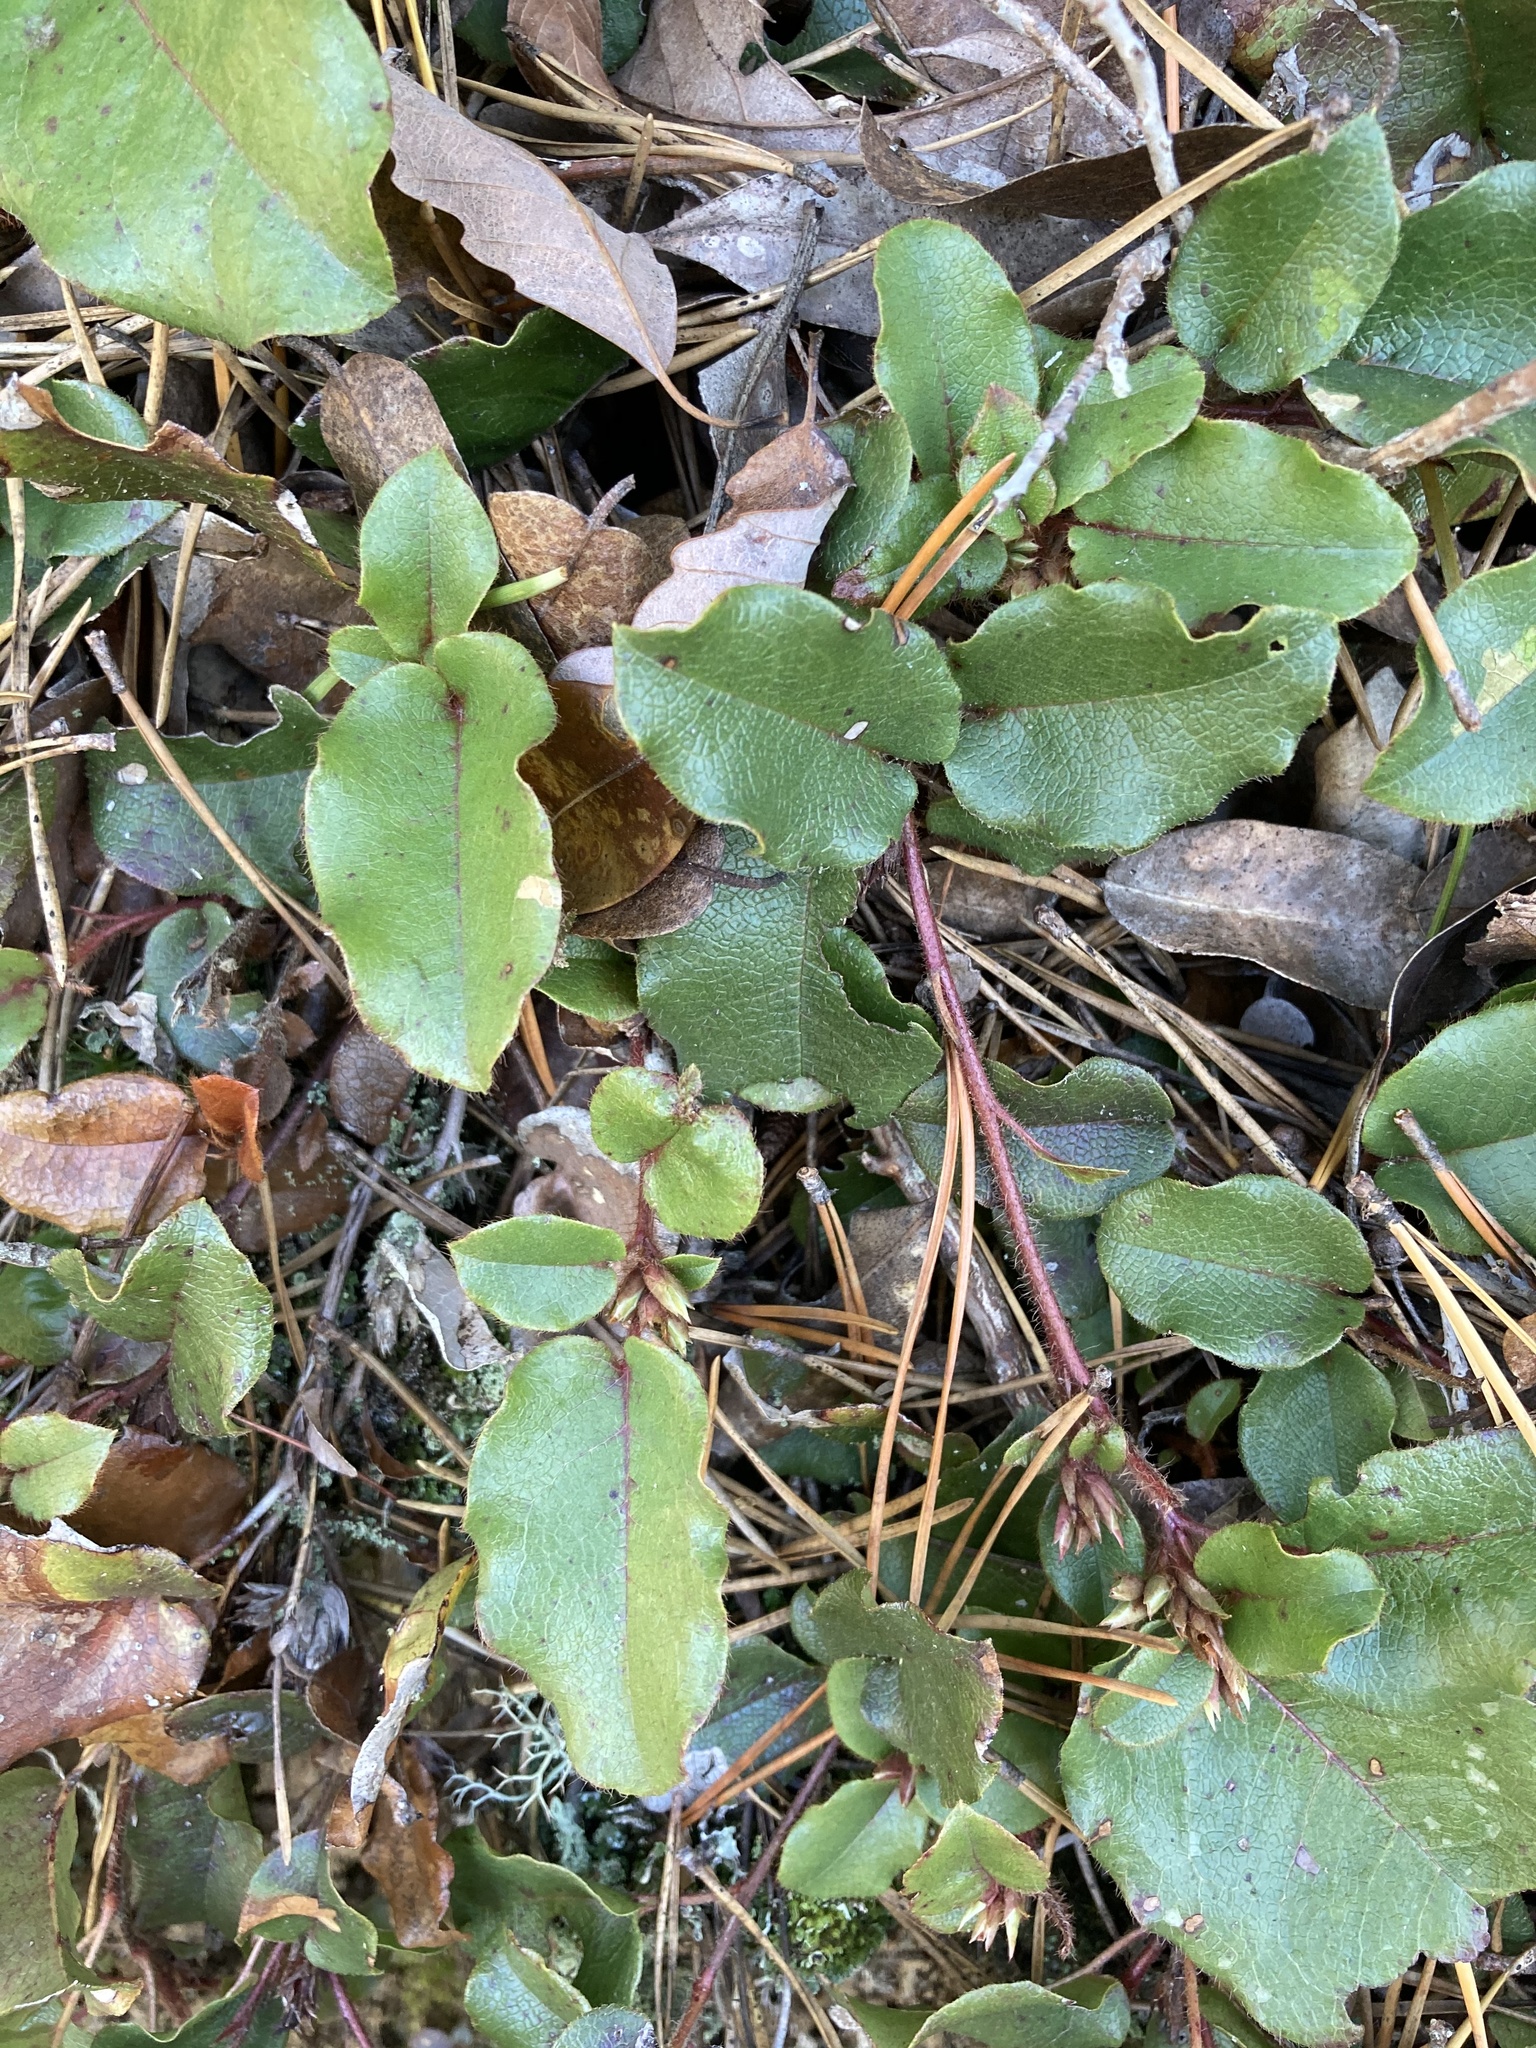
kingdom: Plantae
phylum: Tracheophyta
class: Magnoliopsida
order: Ericales
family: Ericaceae
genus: Epigaea
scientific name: Epigaea repens
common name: Gravelroot
